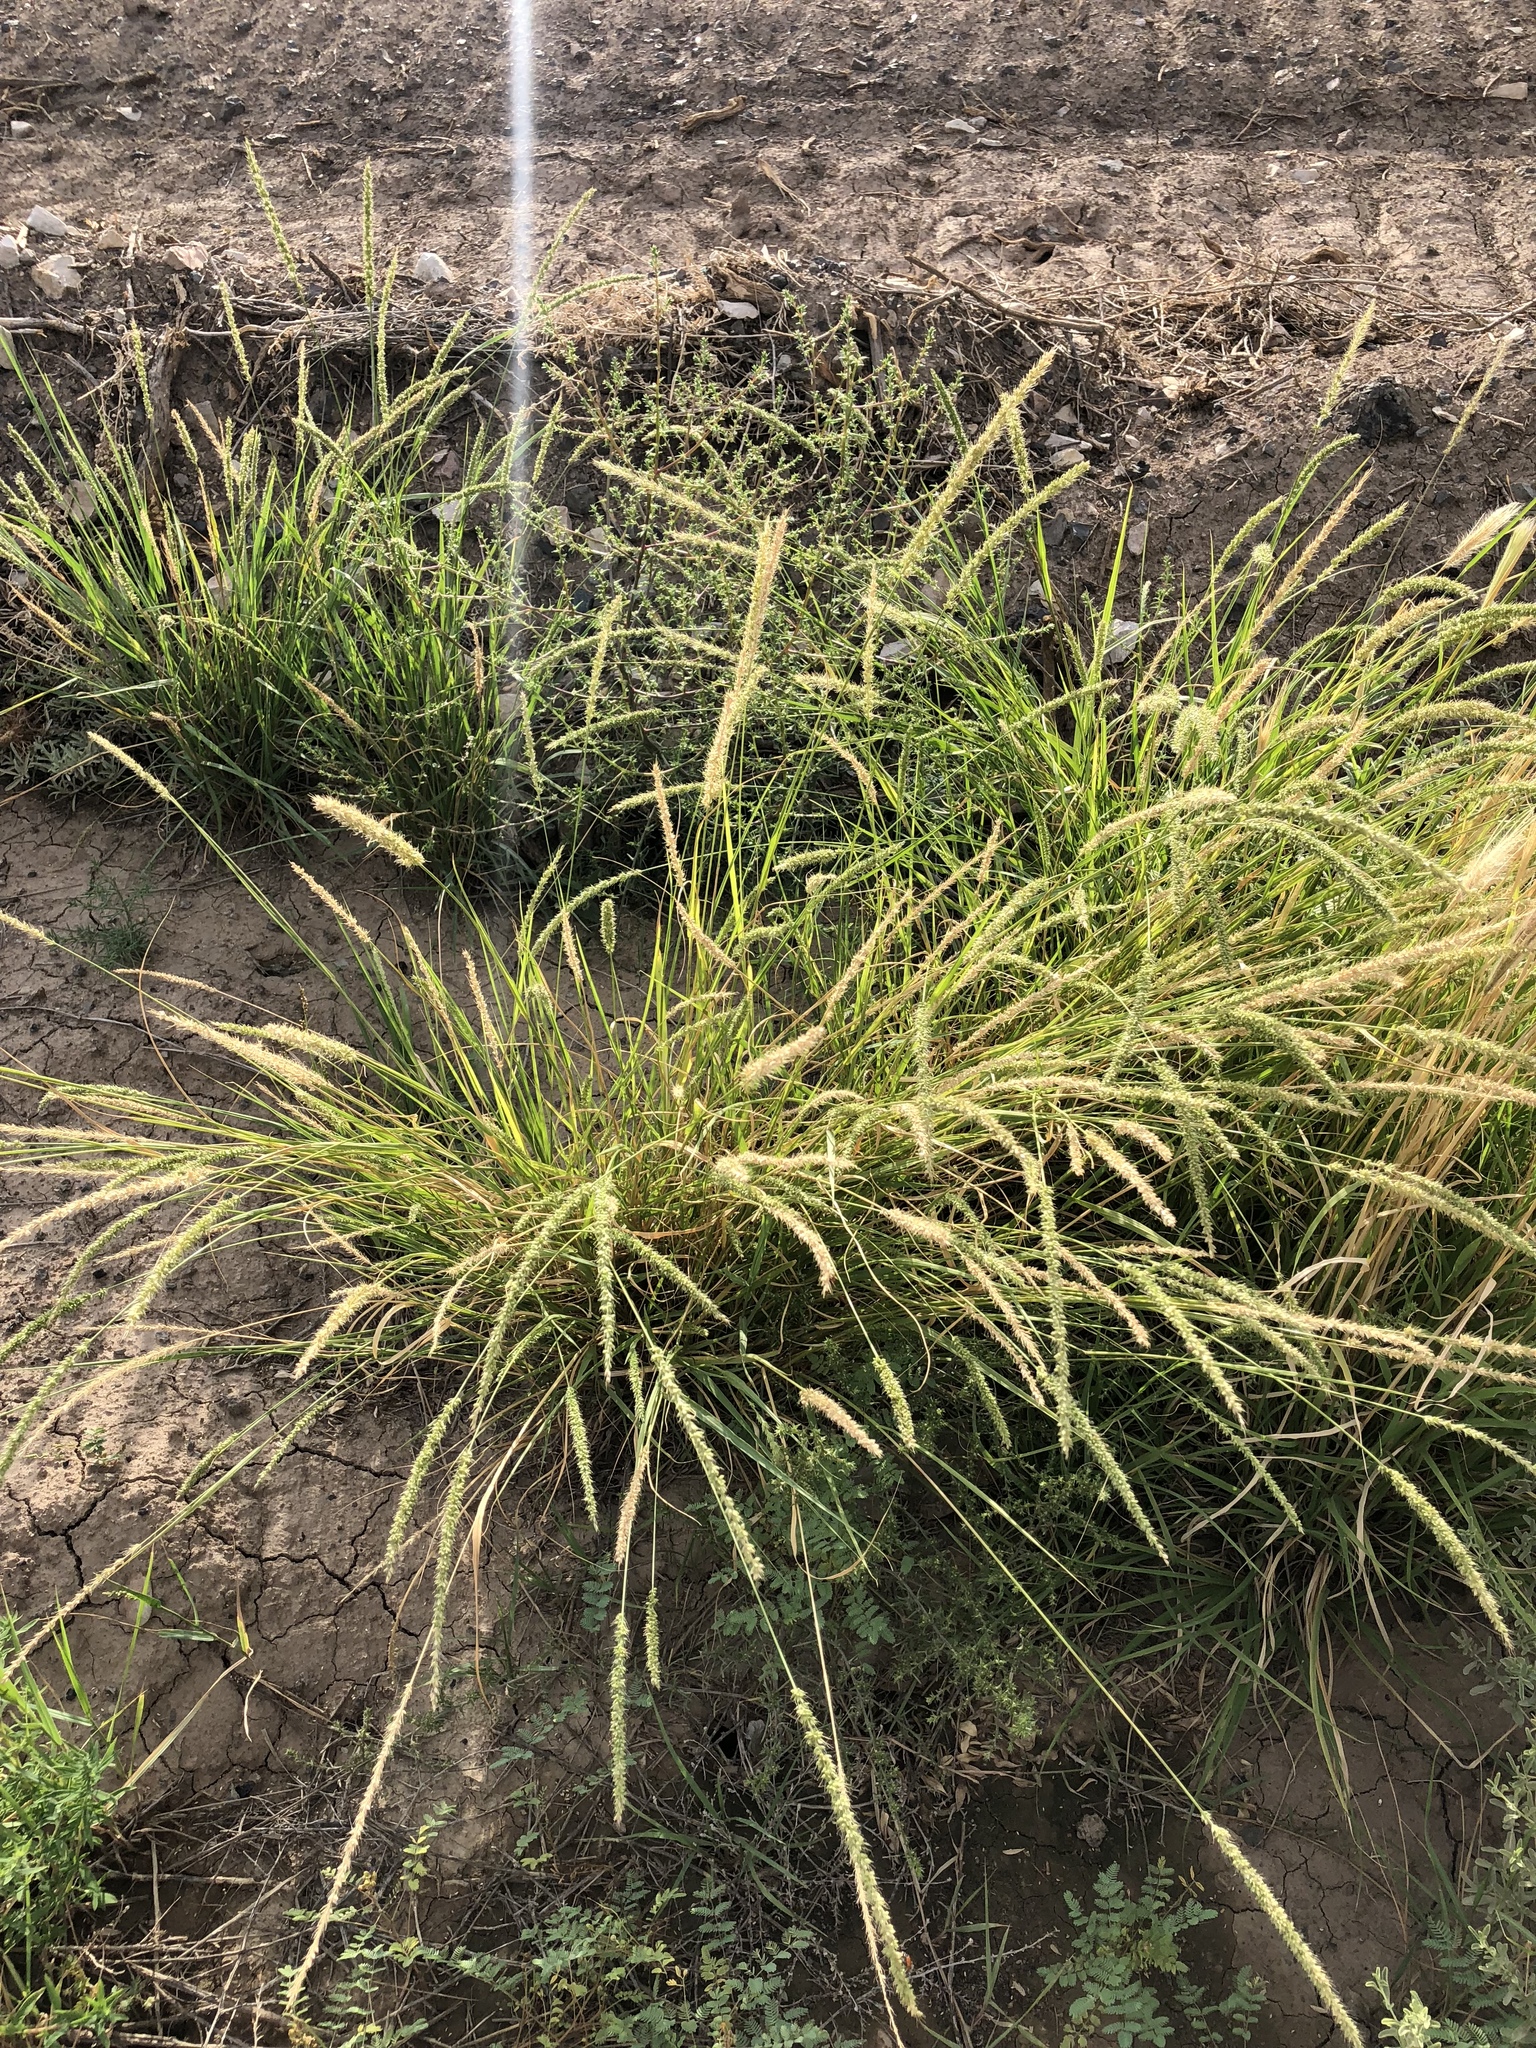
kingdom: Plantae
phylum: Tracheophyta
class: Liliopsida
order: Poales
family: Poaceae
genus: Setaria
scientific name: Setaria leucopila
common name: Plains bristle grass
